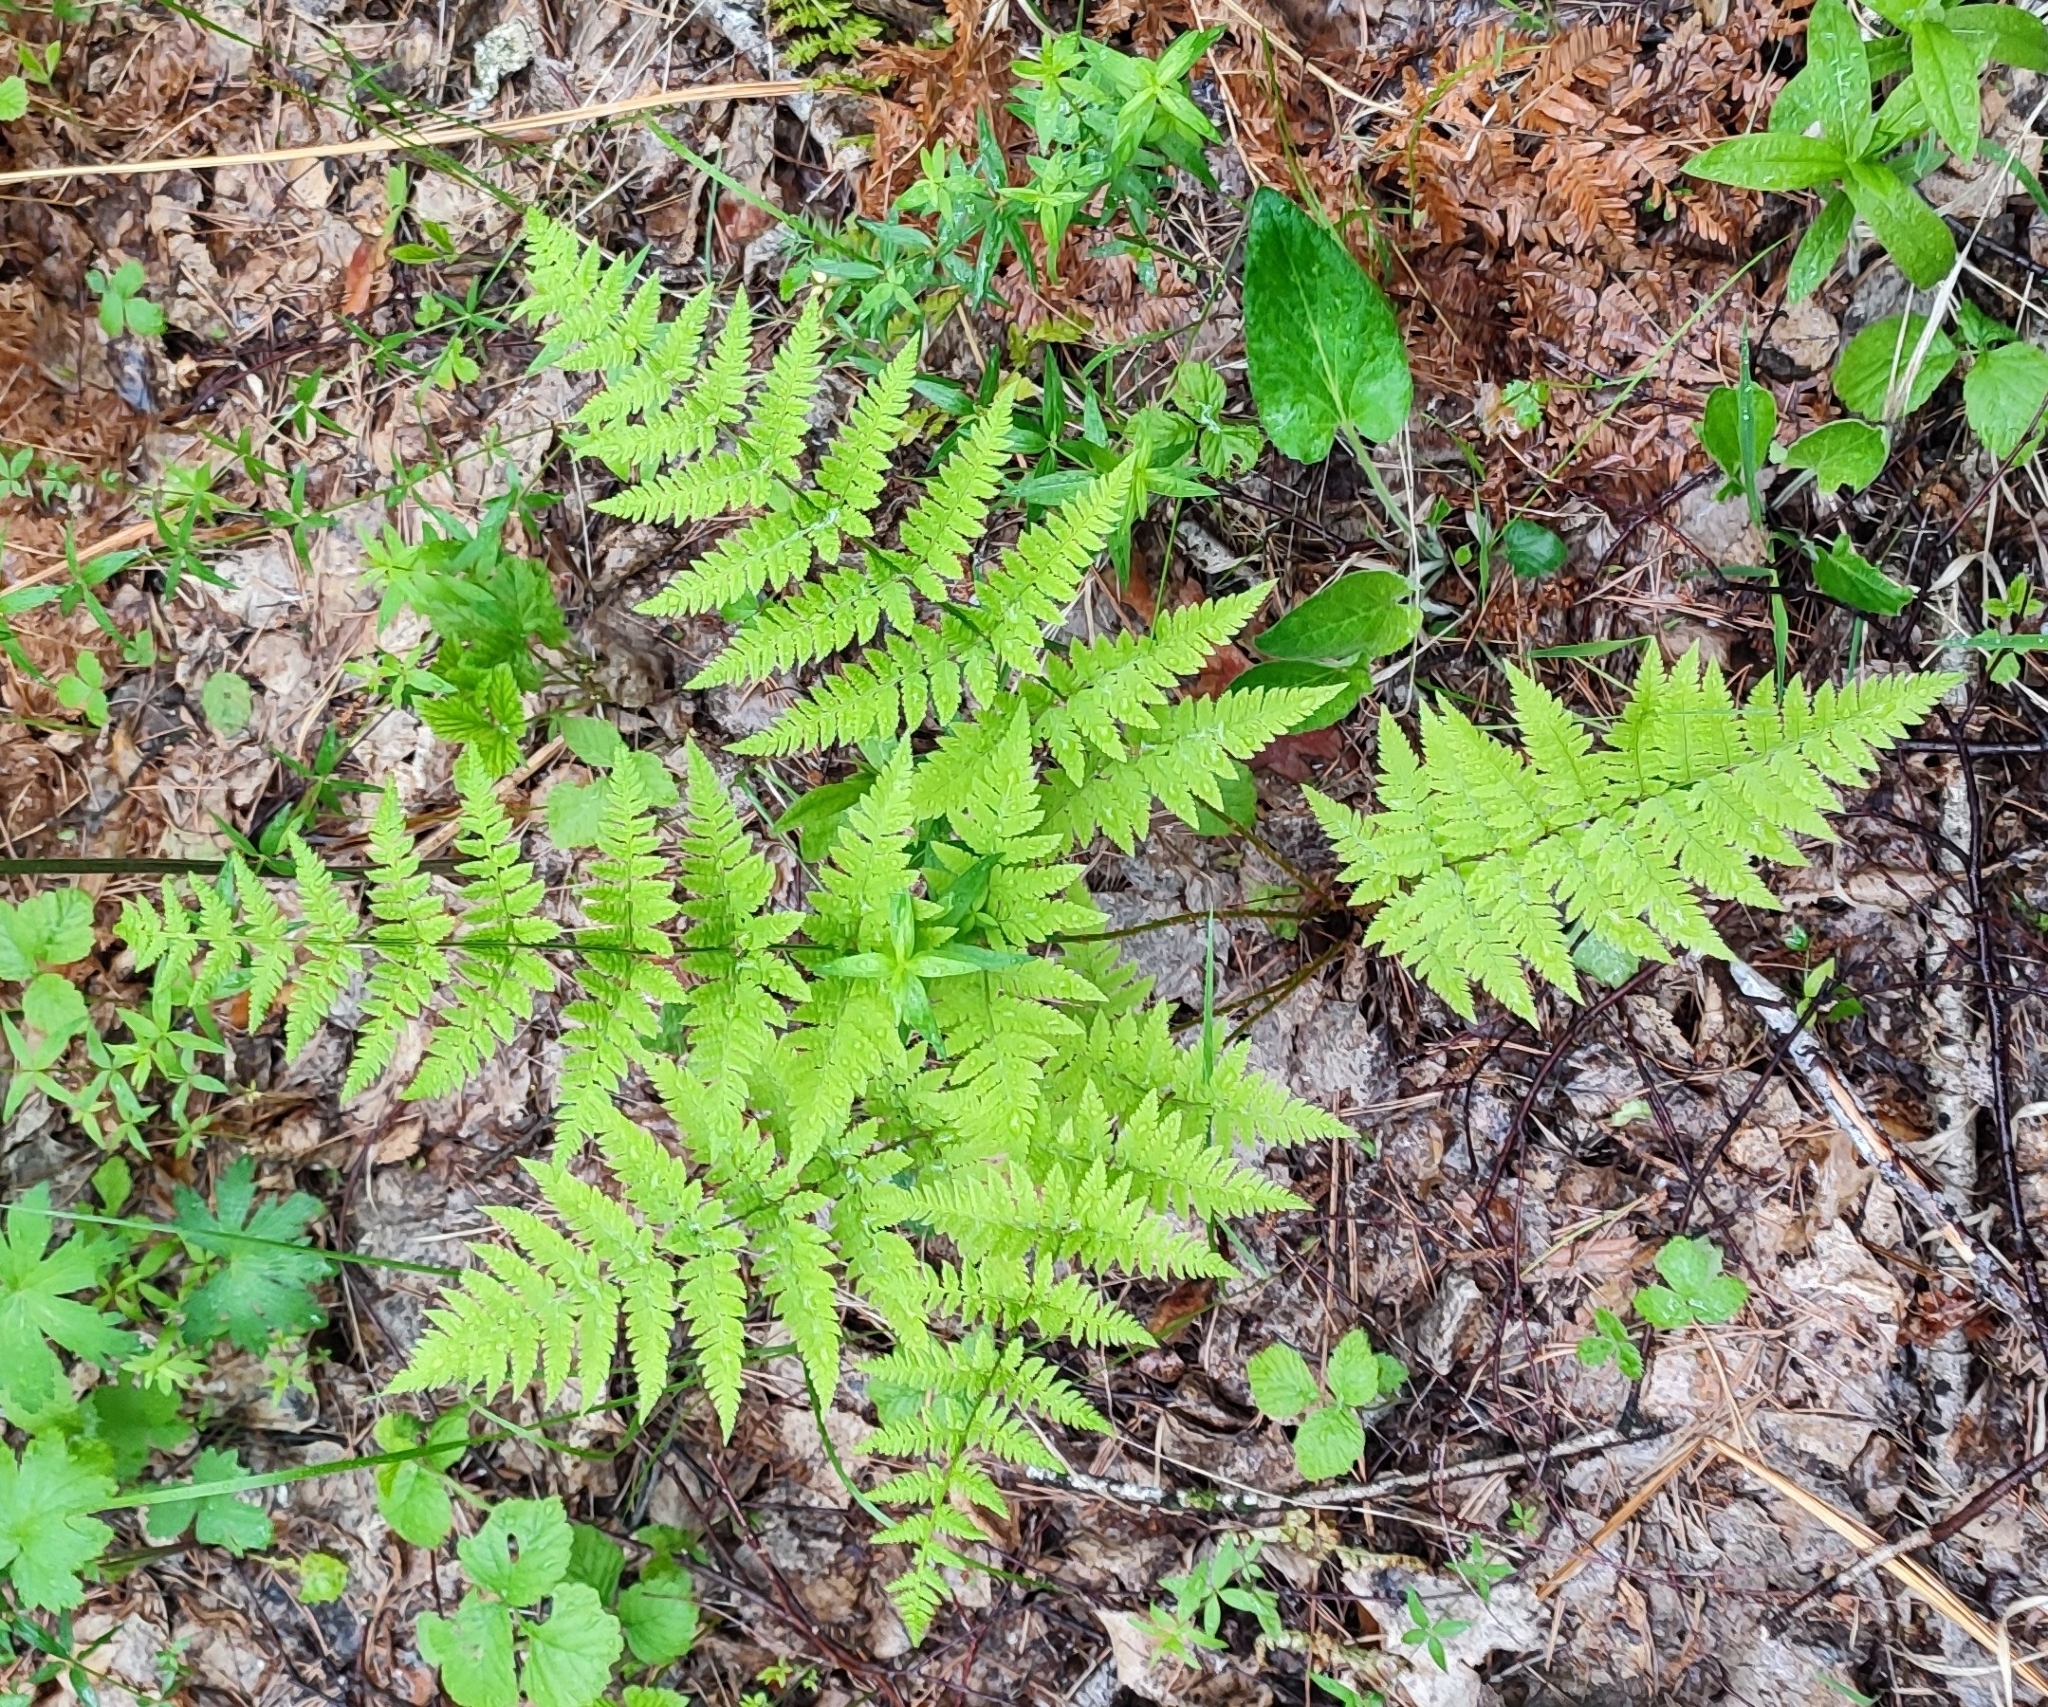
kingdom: Plantae
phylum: Tracheophyta
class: Polypodiopsida
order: Polypodiales
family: Dryopteridaceae
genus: Dryopteris
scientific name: Dryopteris carthusiana
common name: Narrow buckler-fern
